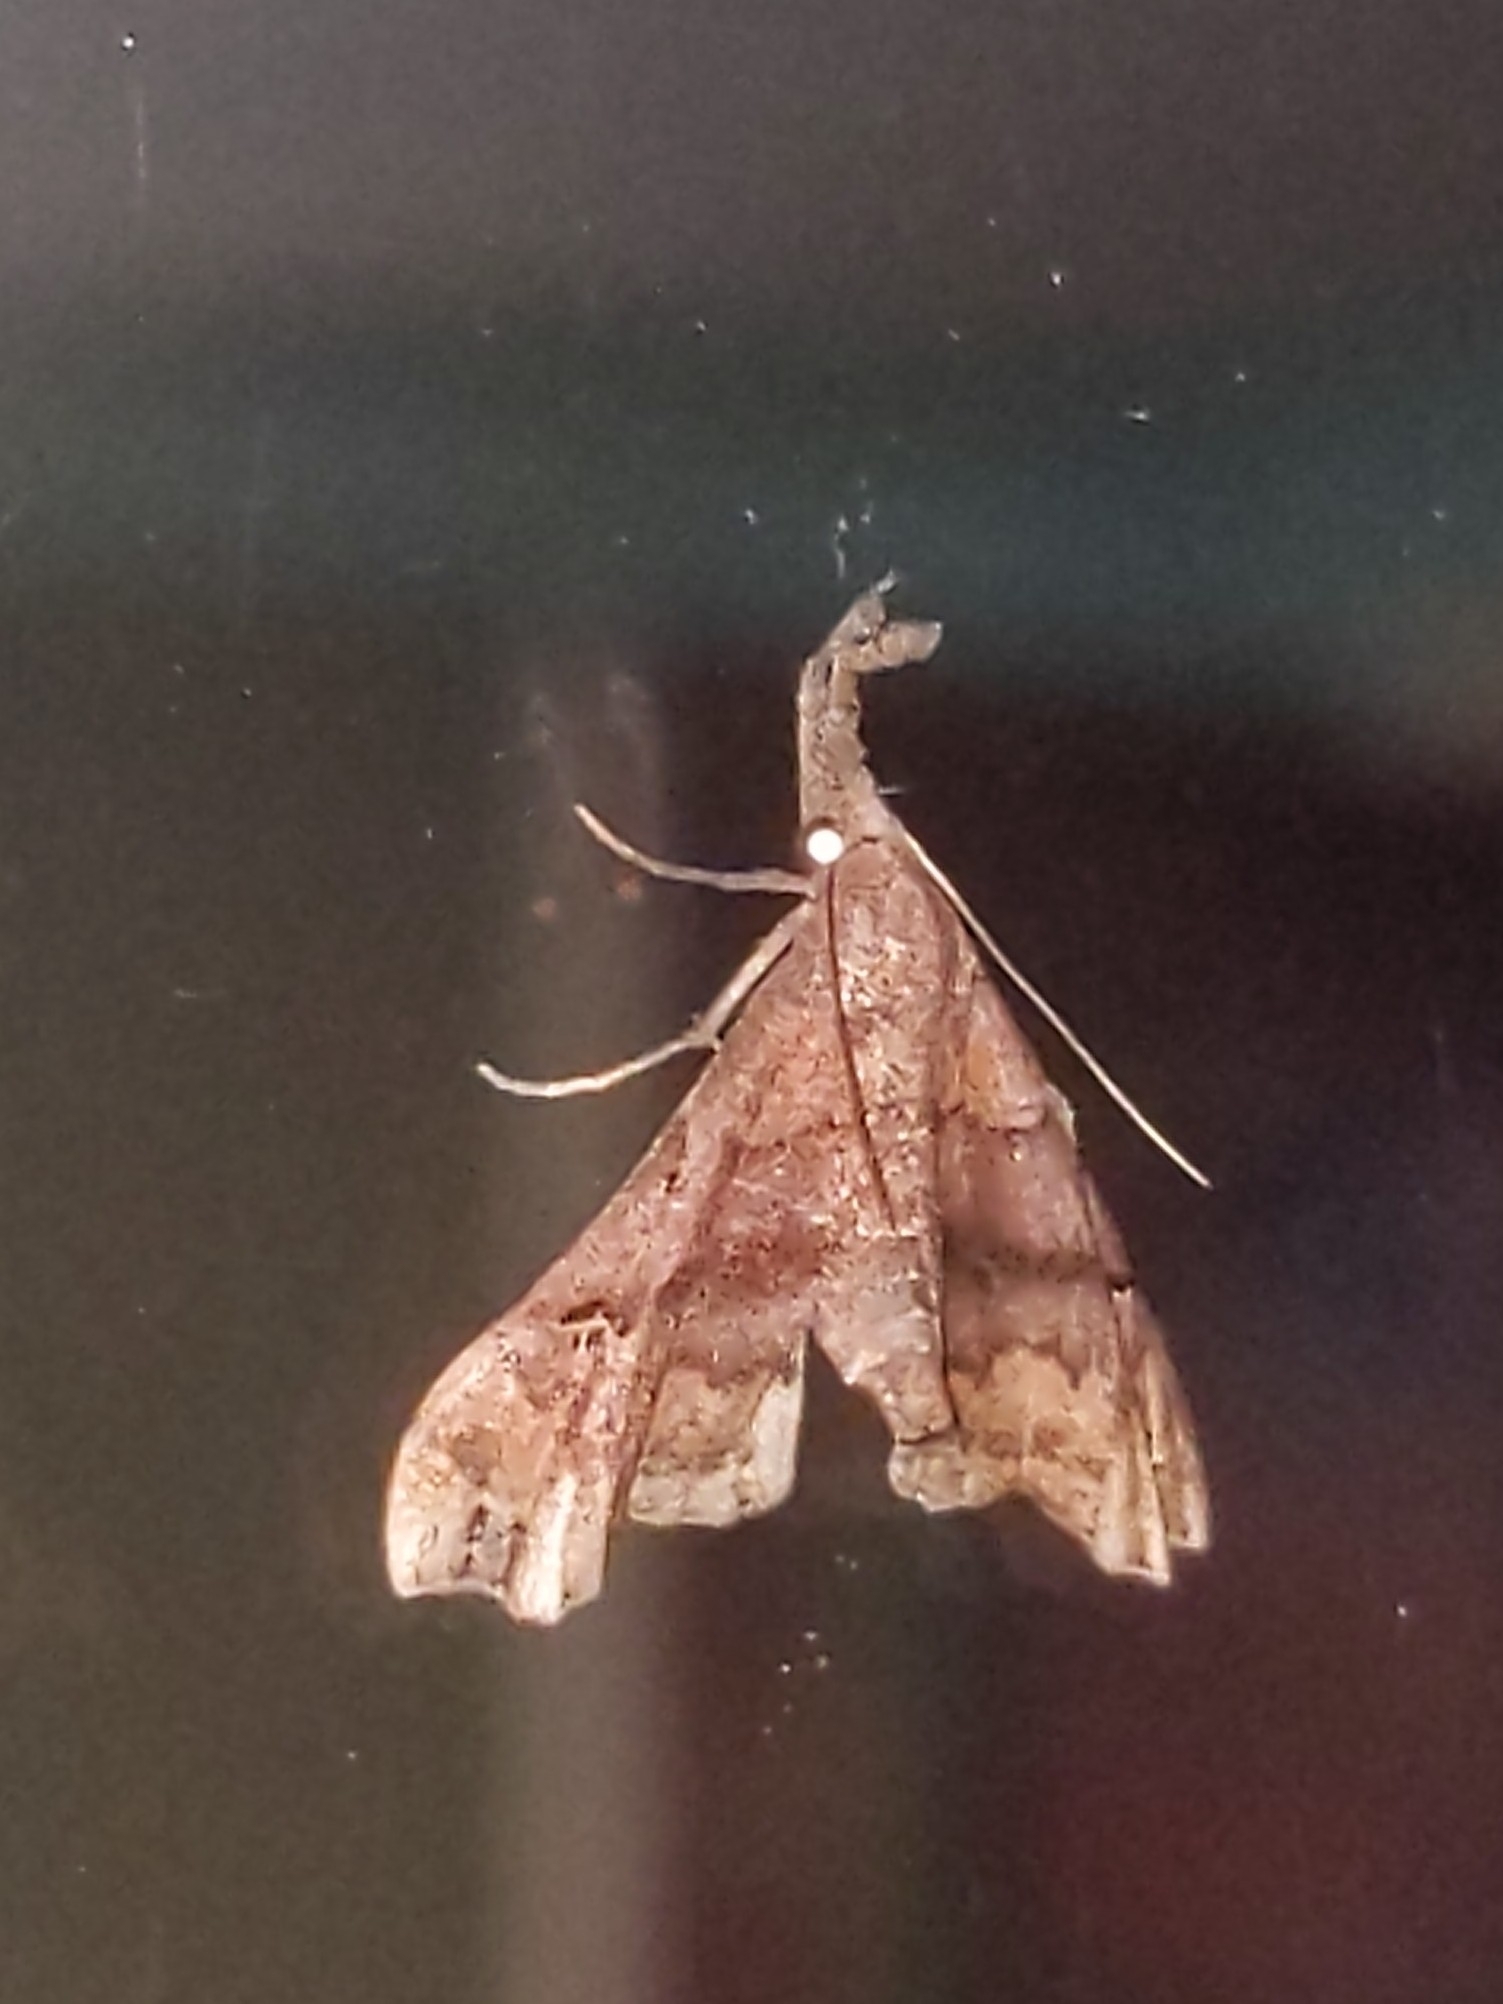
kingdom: Animalia
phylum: Arthropoda
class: Insecta
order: Lepidoptera
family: Erebidae
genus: Palthis
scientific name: Palthis asopialis
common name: Faint-spotted palthis moth
